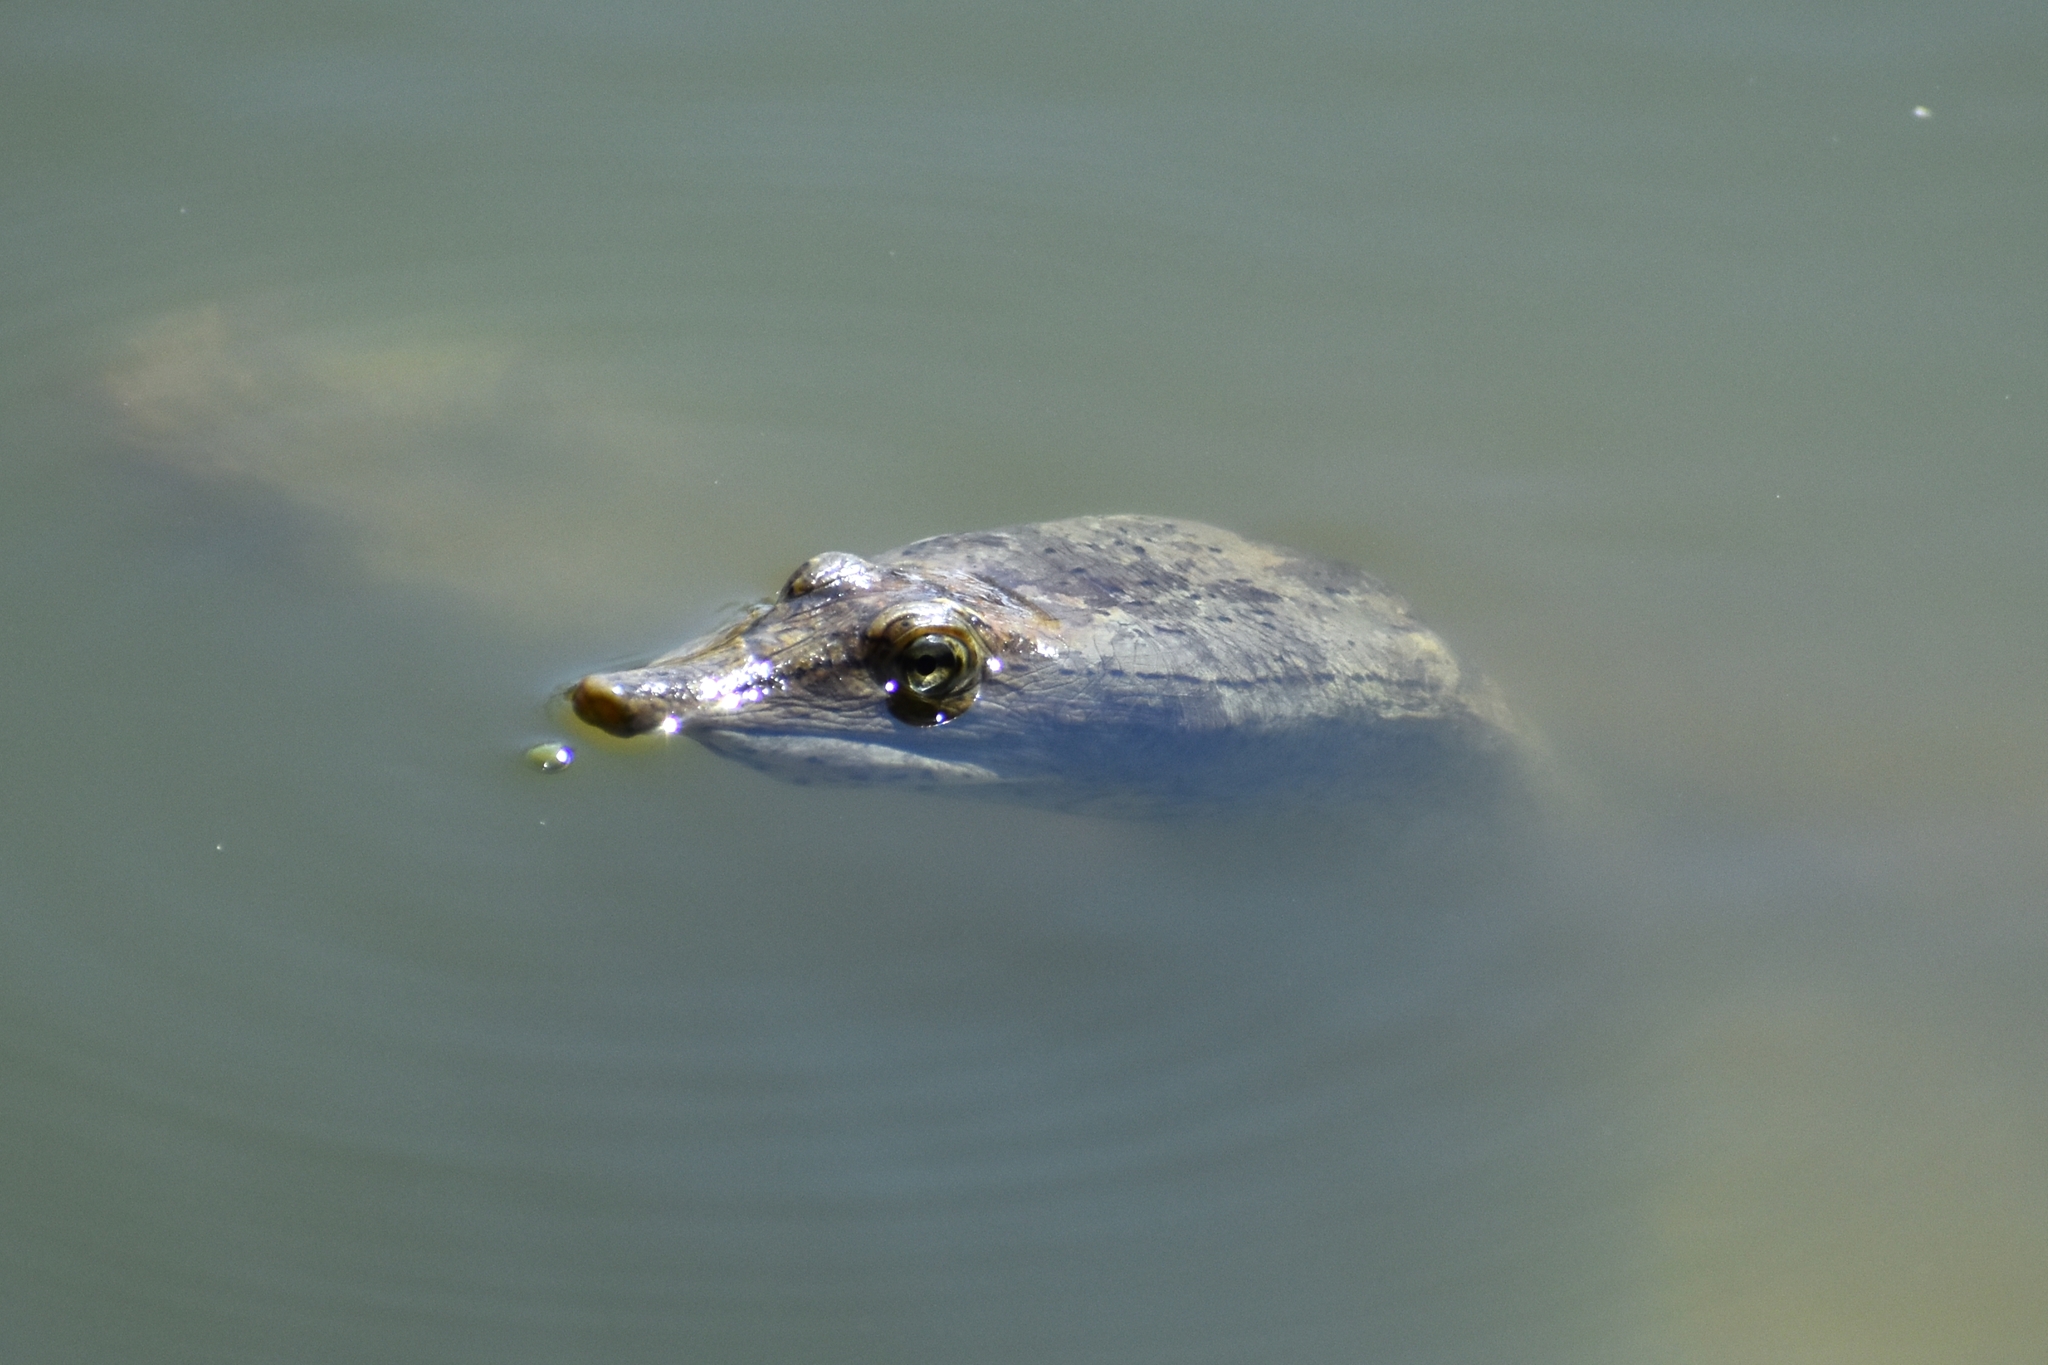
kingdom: Animalia
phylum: Chordata
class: Testudines
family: Trionychidae
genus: Apalone
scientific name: Apalone spinifera
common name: Spiny softshell turtle
